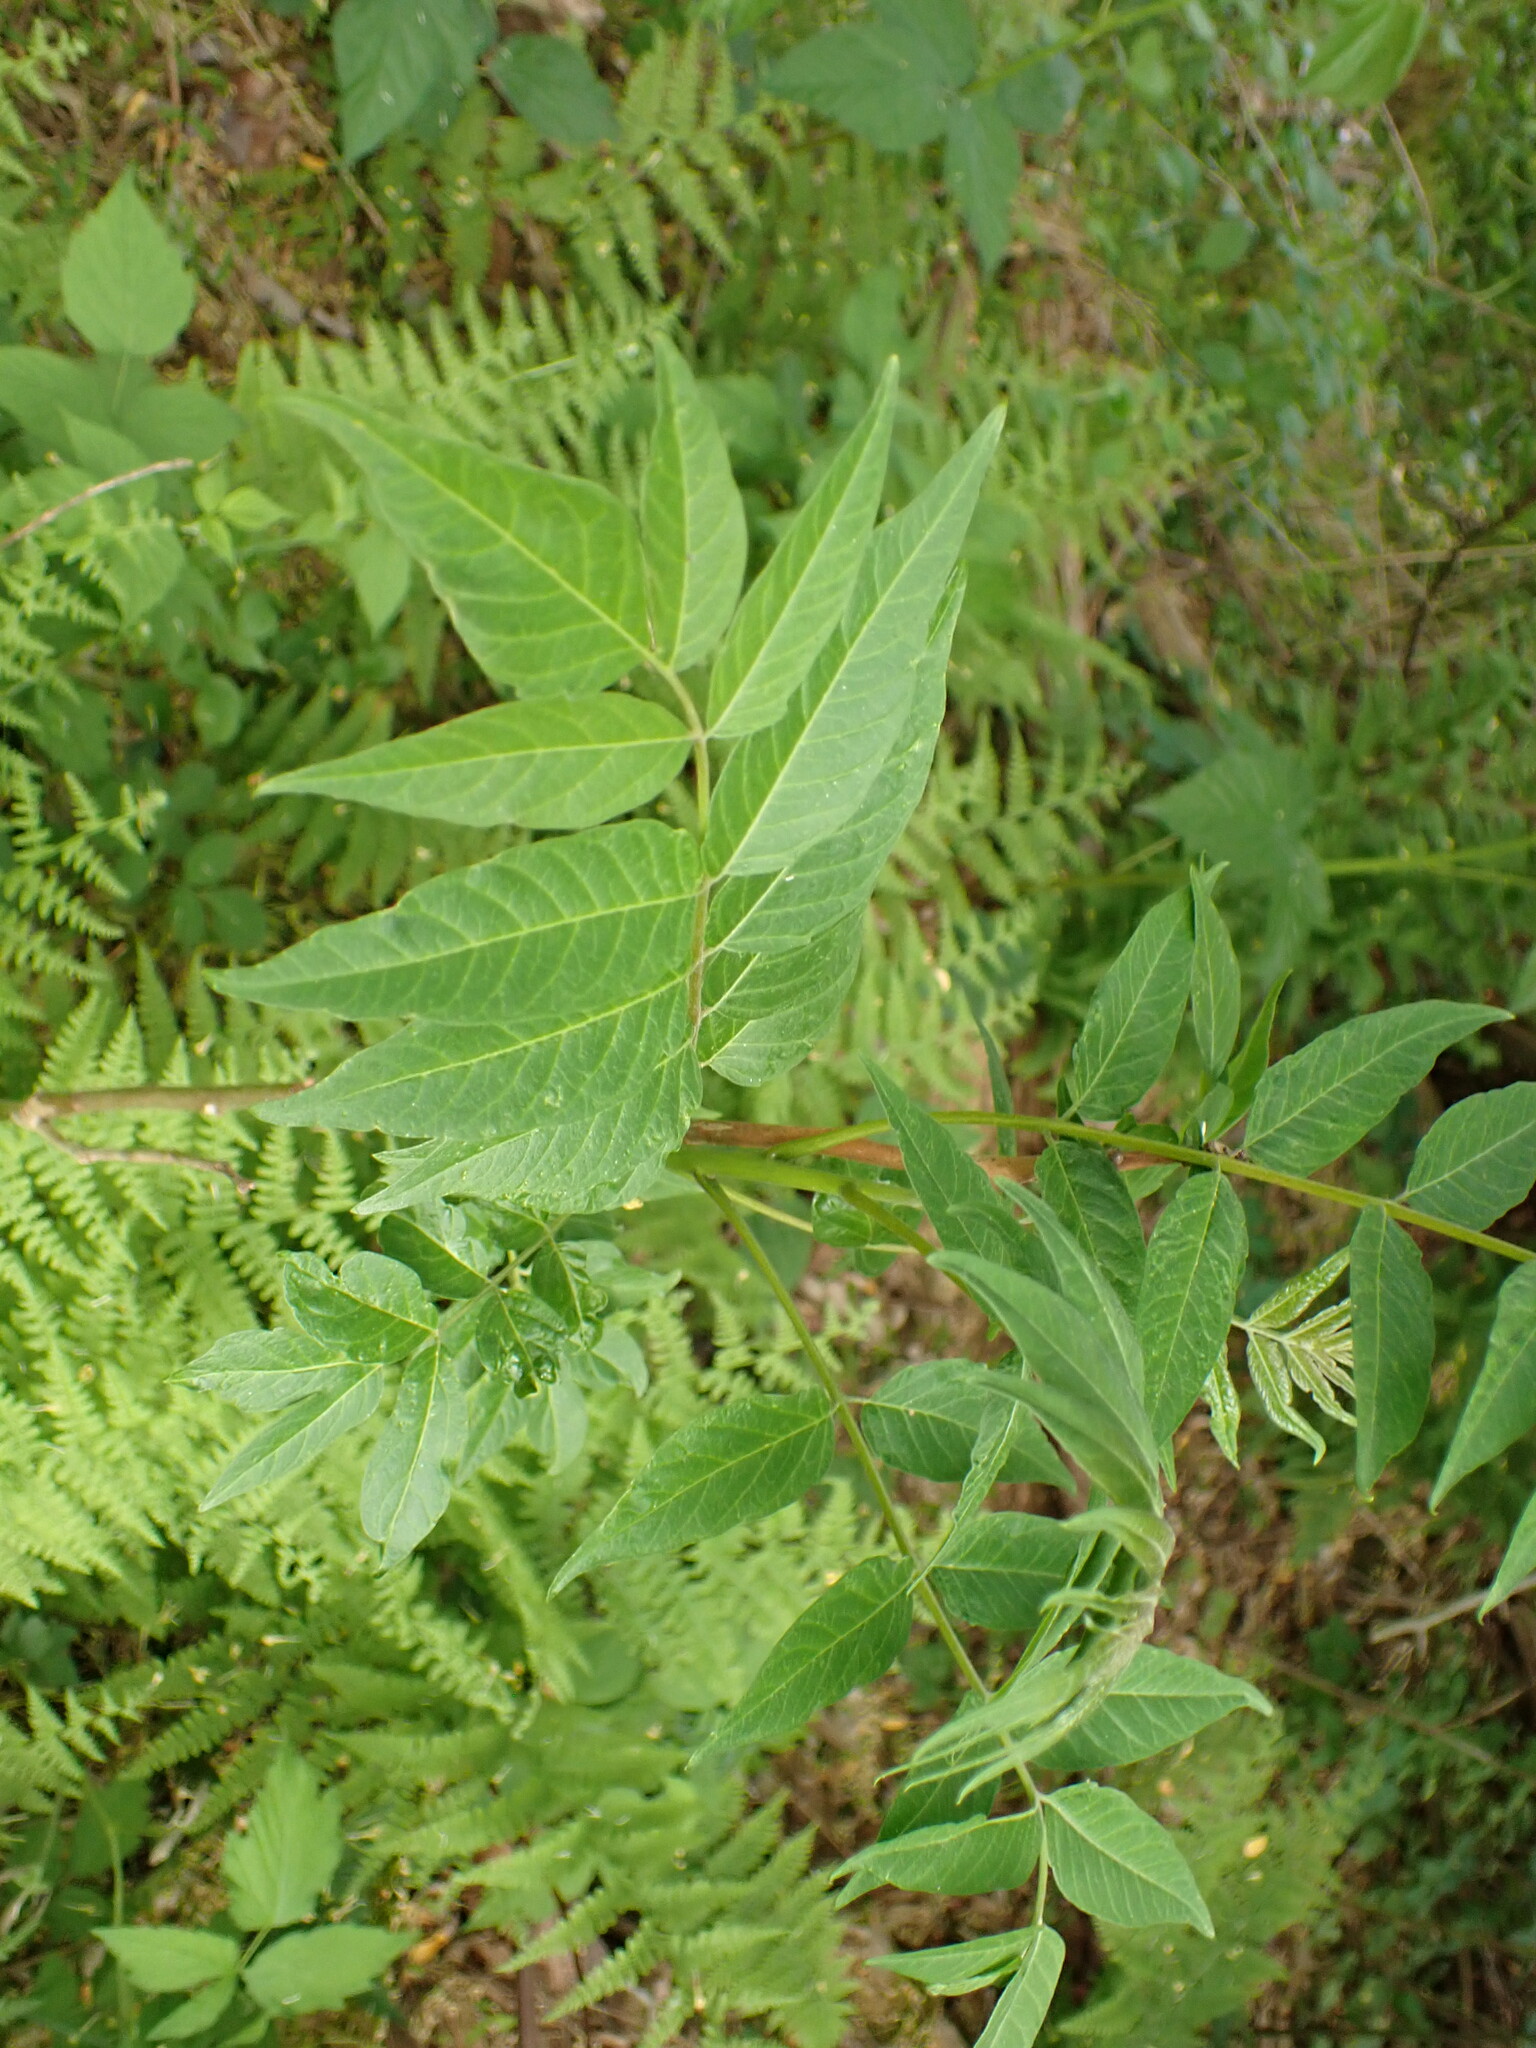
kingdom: Plantae
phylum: Tracheophyta
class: Magnoliopsida
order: Sapindales
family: Simaroubaceae
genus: Ailanthus
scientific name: Ailanthus altissima
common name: Tree-of-heaven
